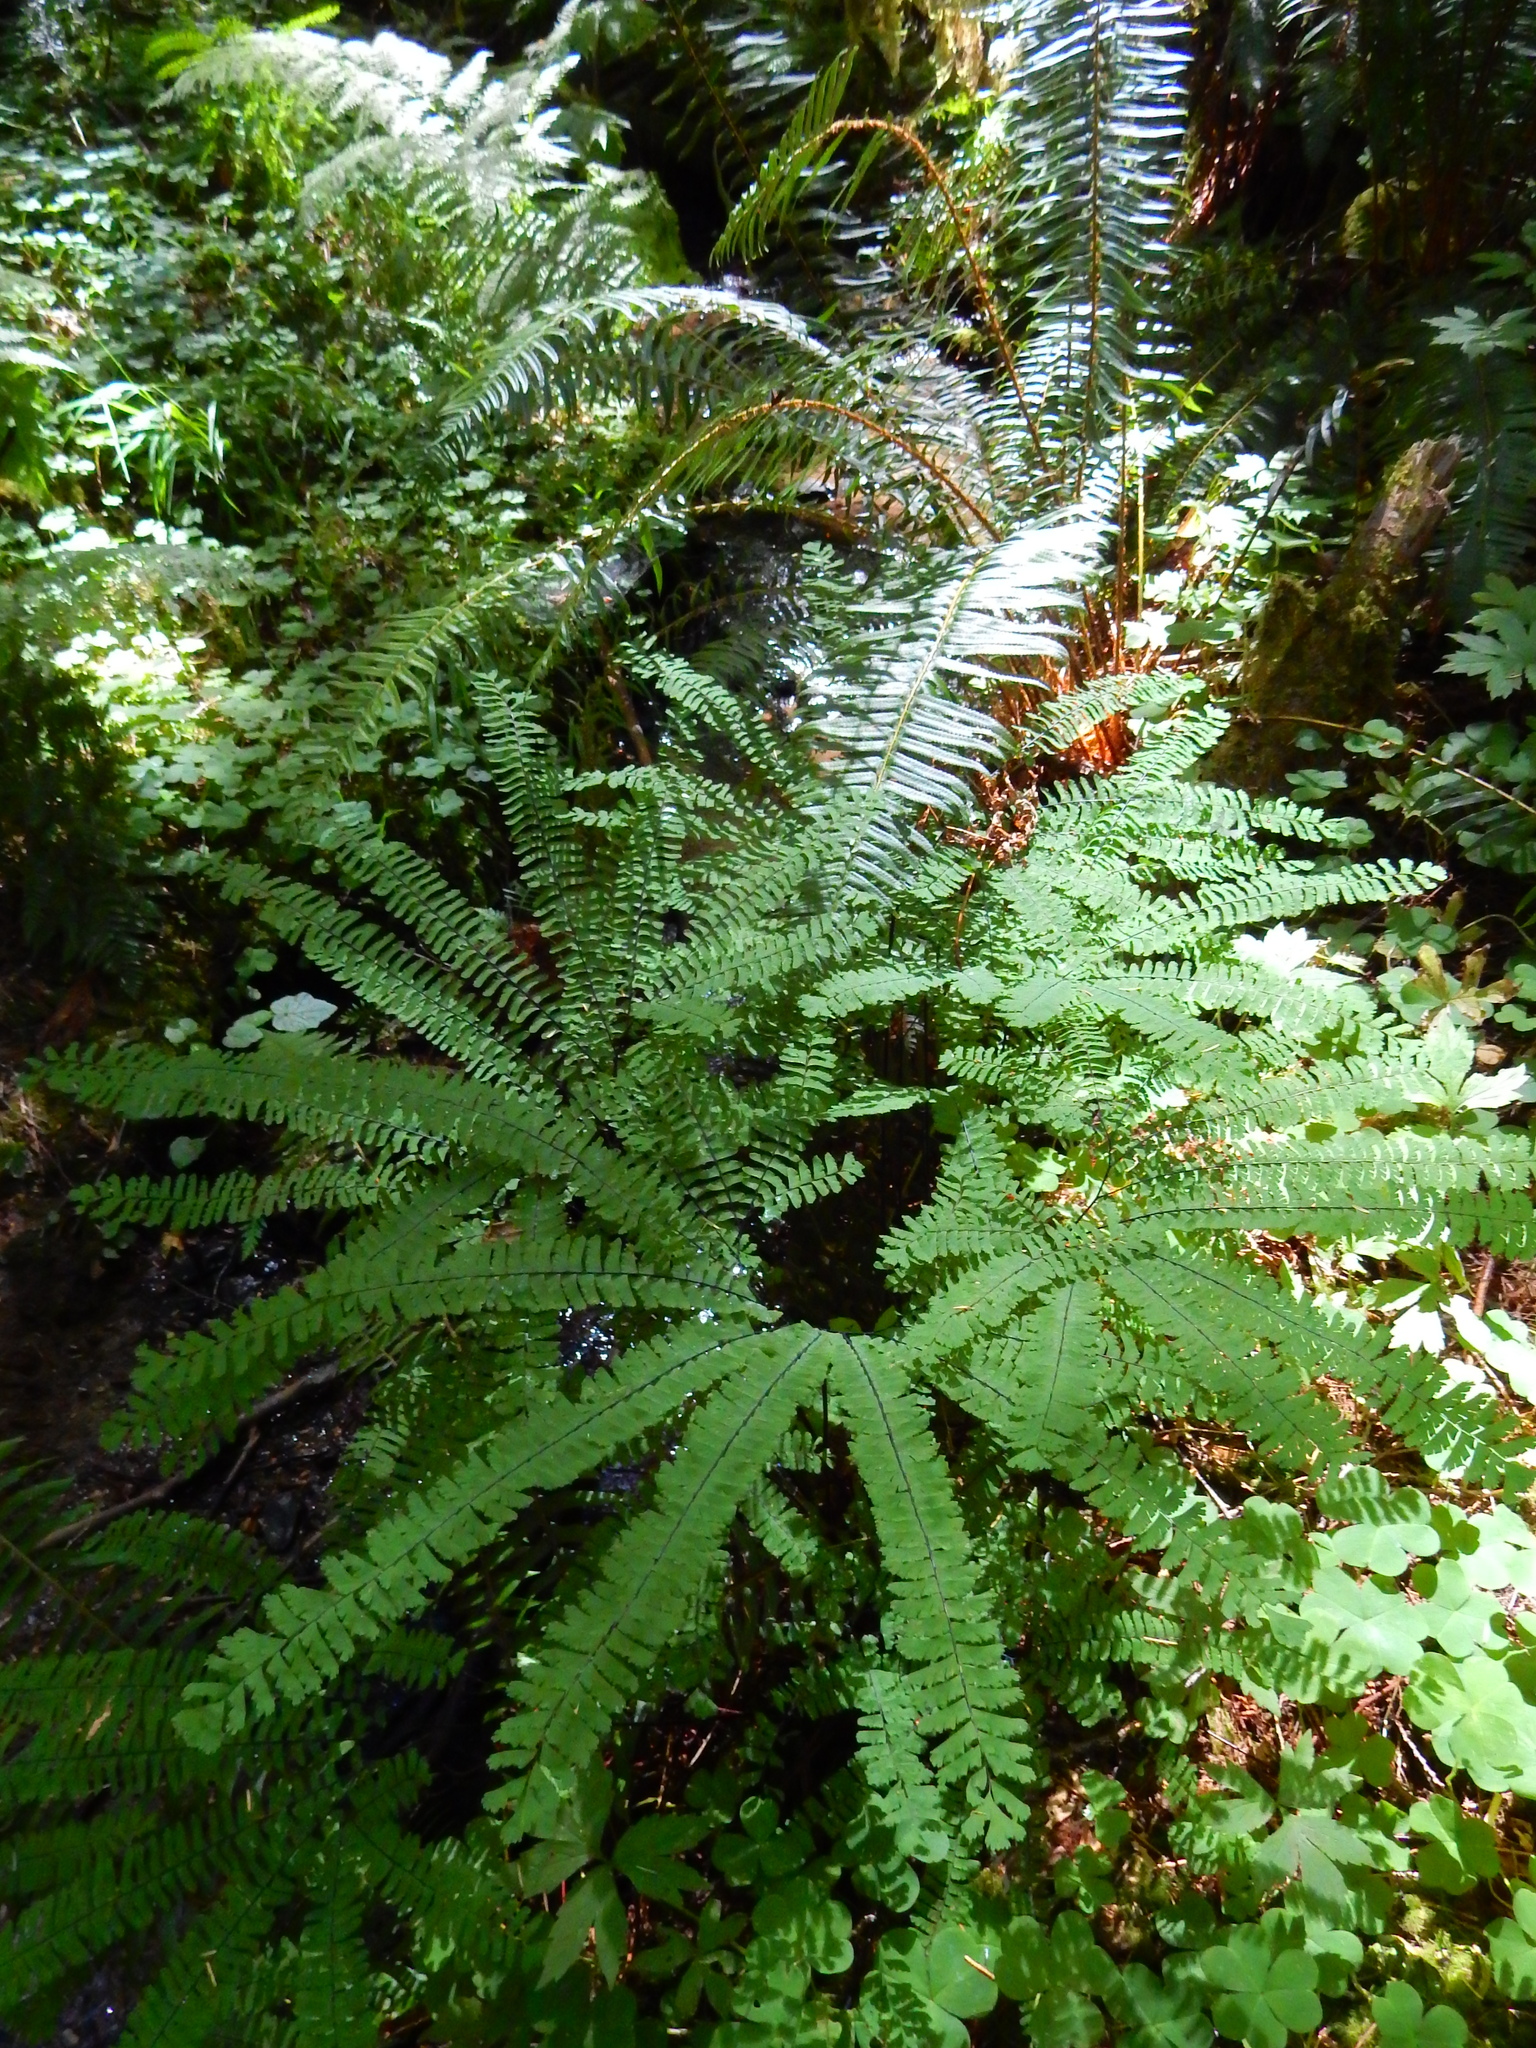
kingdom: Plantae
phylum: Tracheophyta
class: Polypodiopsida
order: Polypodiales
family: Pteridaceae
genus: Adiantum
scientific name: Adiantum aleuticum
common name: Aleutian maidenhair fern
